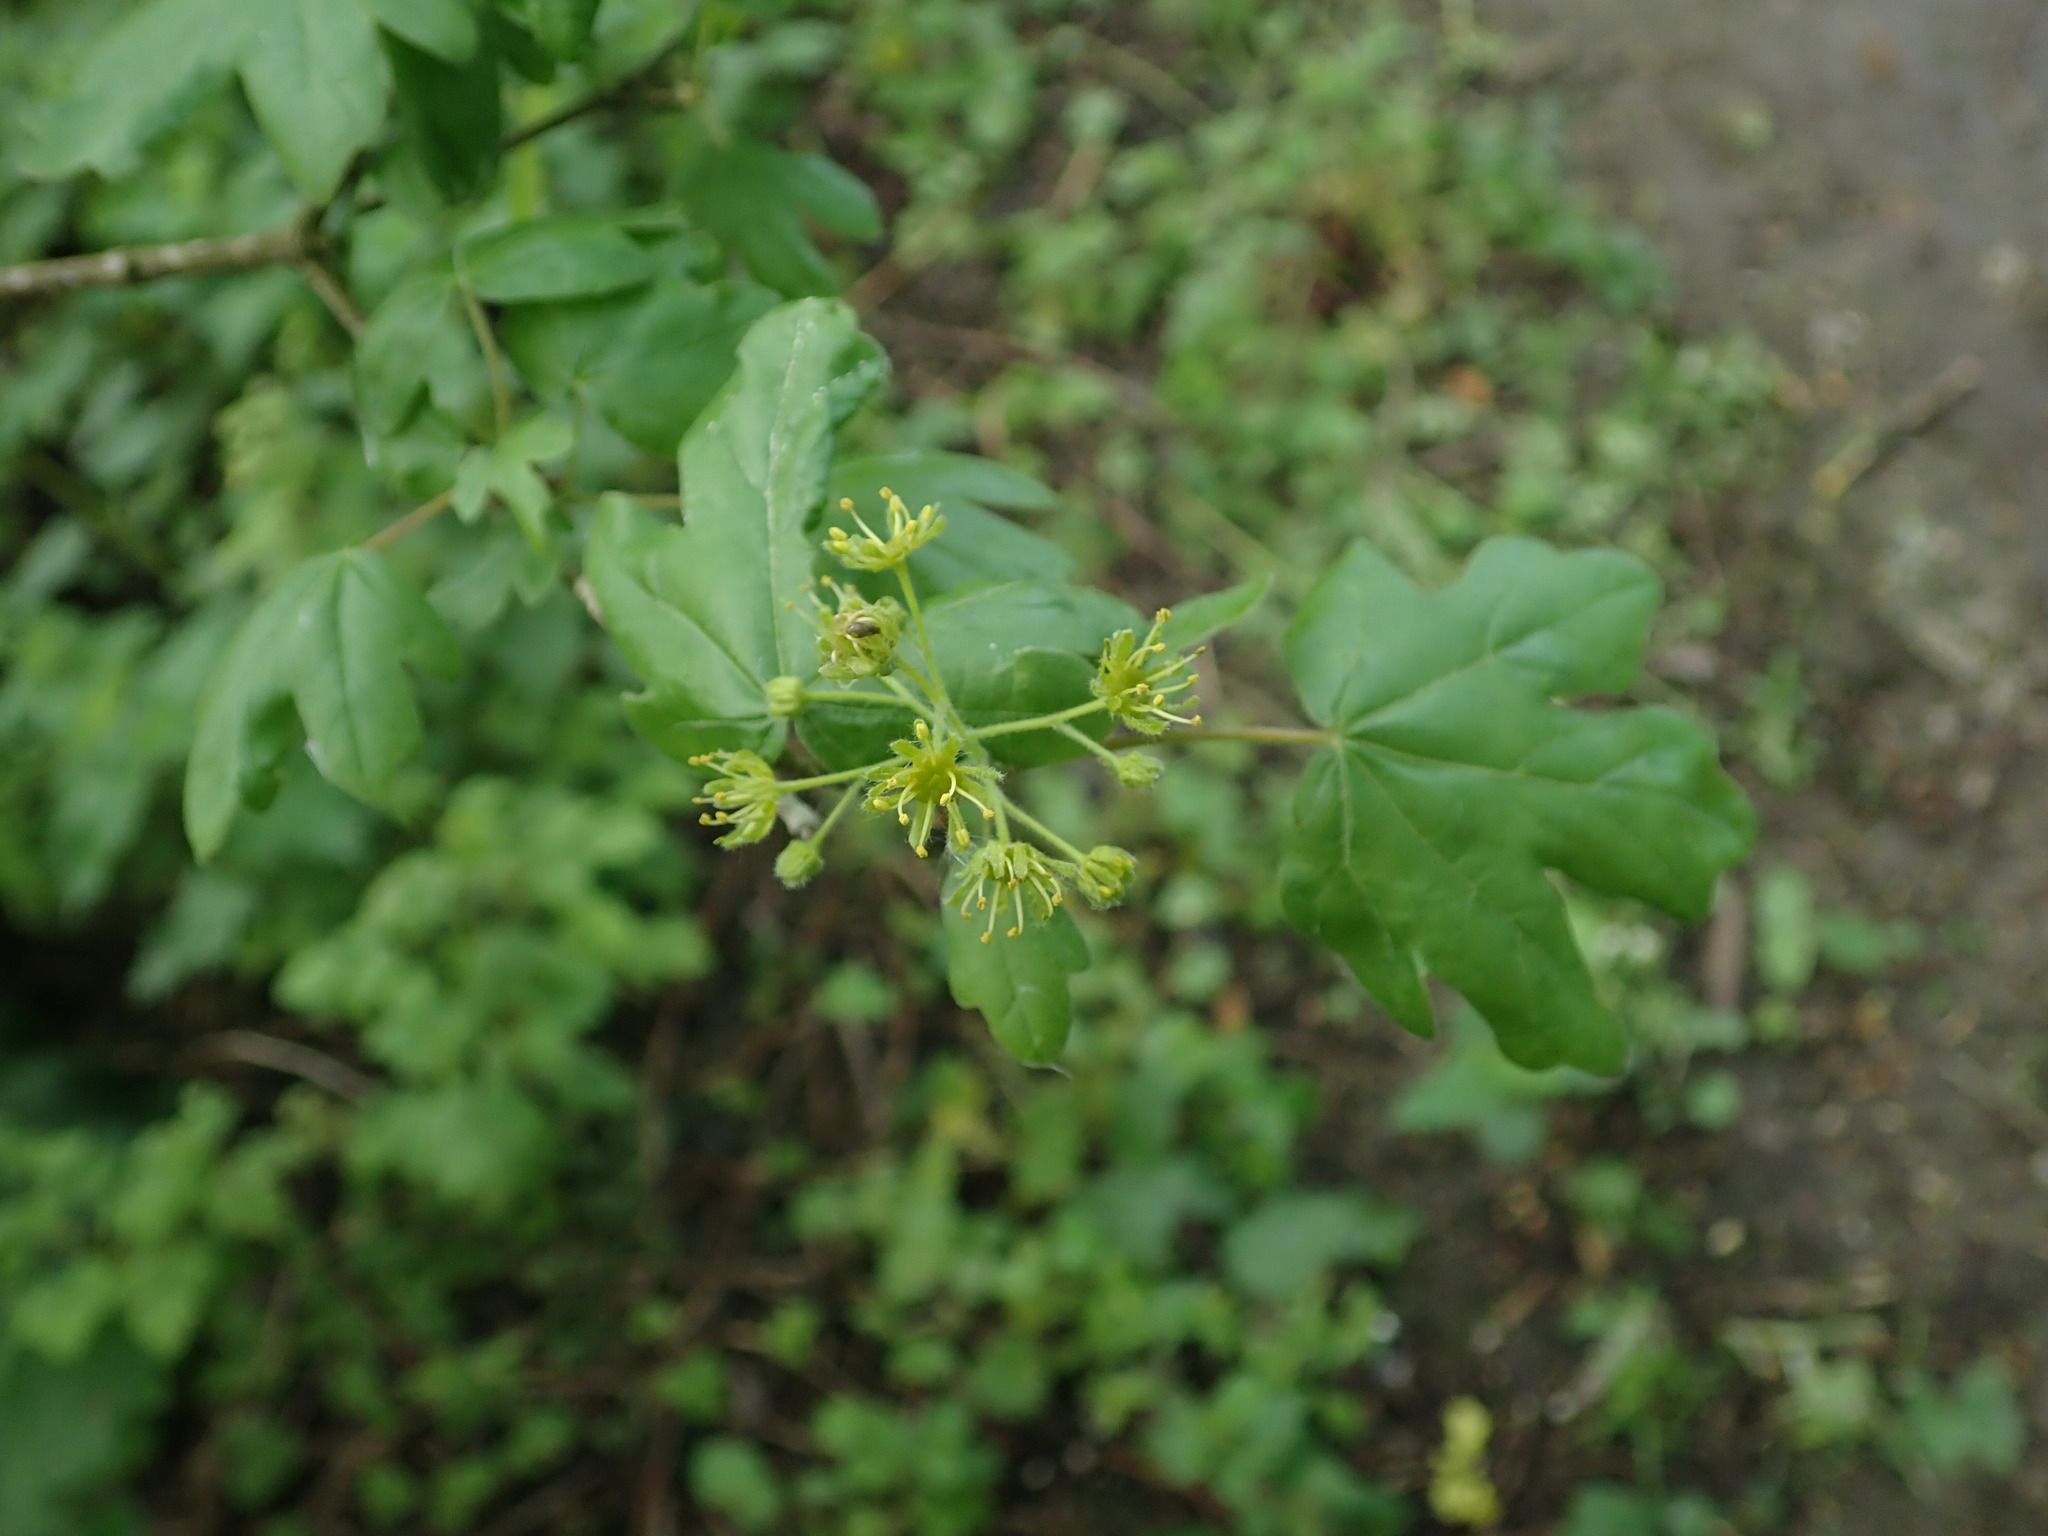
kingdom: Plantae
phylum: Tracheophyta
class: Magnoliopsida
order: Sapindales
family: Sapindaceae
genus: Acer
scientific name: Acer campestre
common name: Field maple
